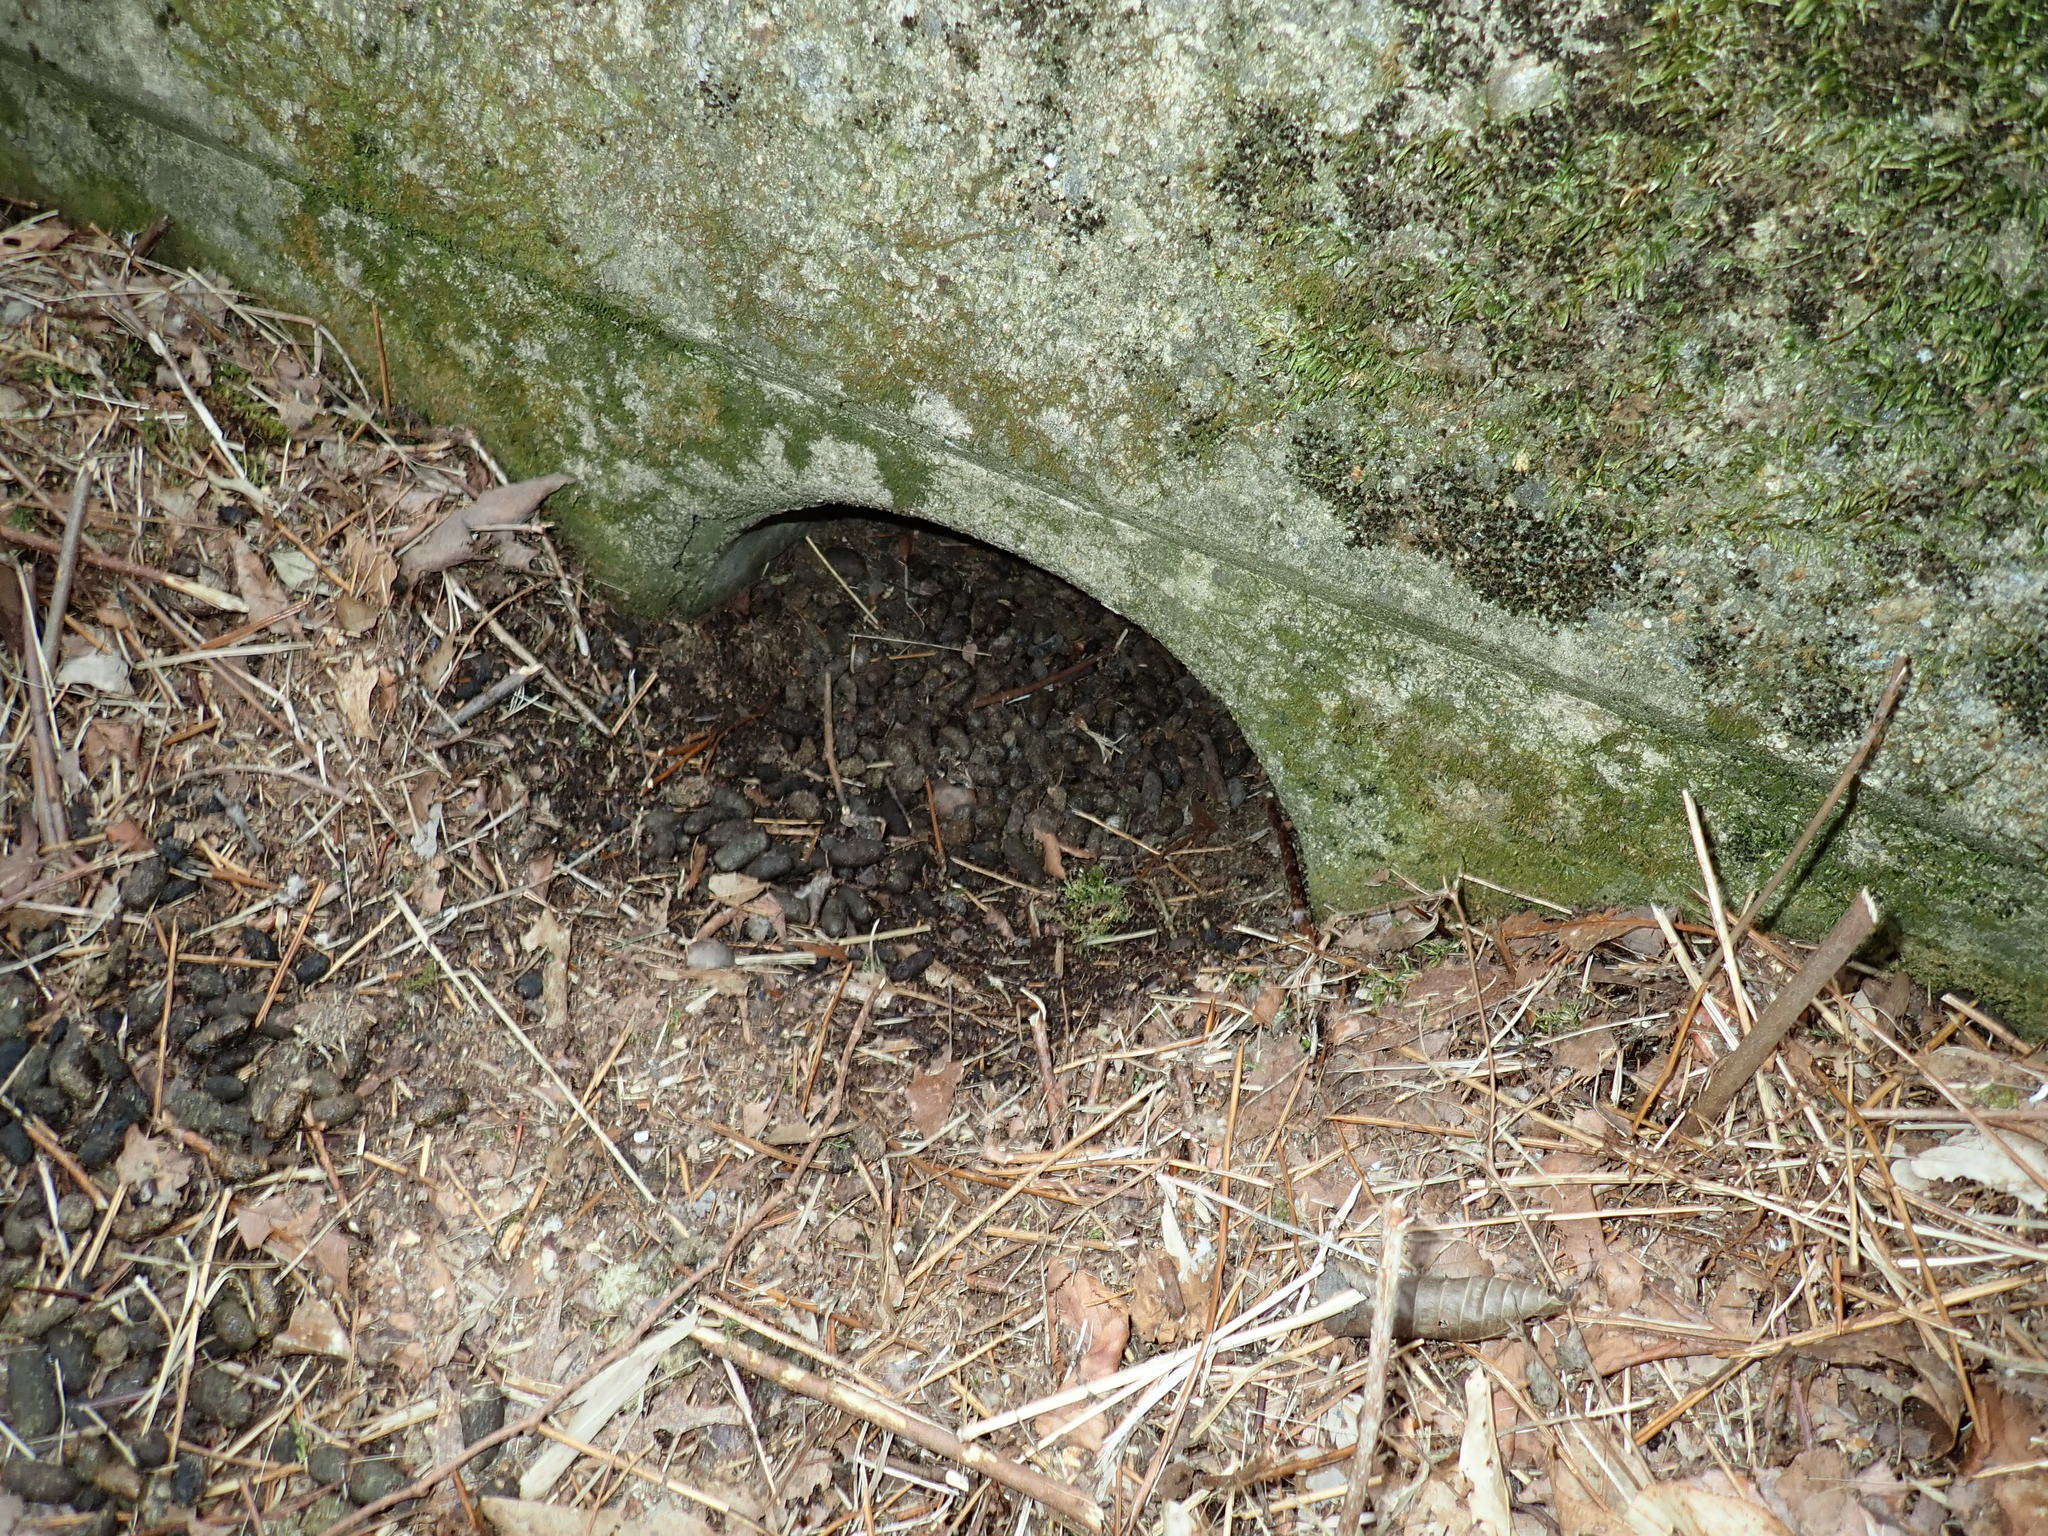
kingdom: Animalia
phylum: Chordata
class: Mammalia
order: Rodentia
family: Erethizontidae
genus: Erethizon
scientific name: Erethizon dorsatus
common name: North american porcupine
